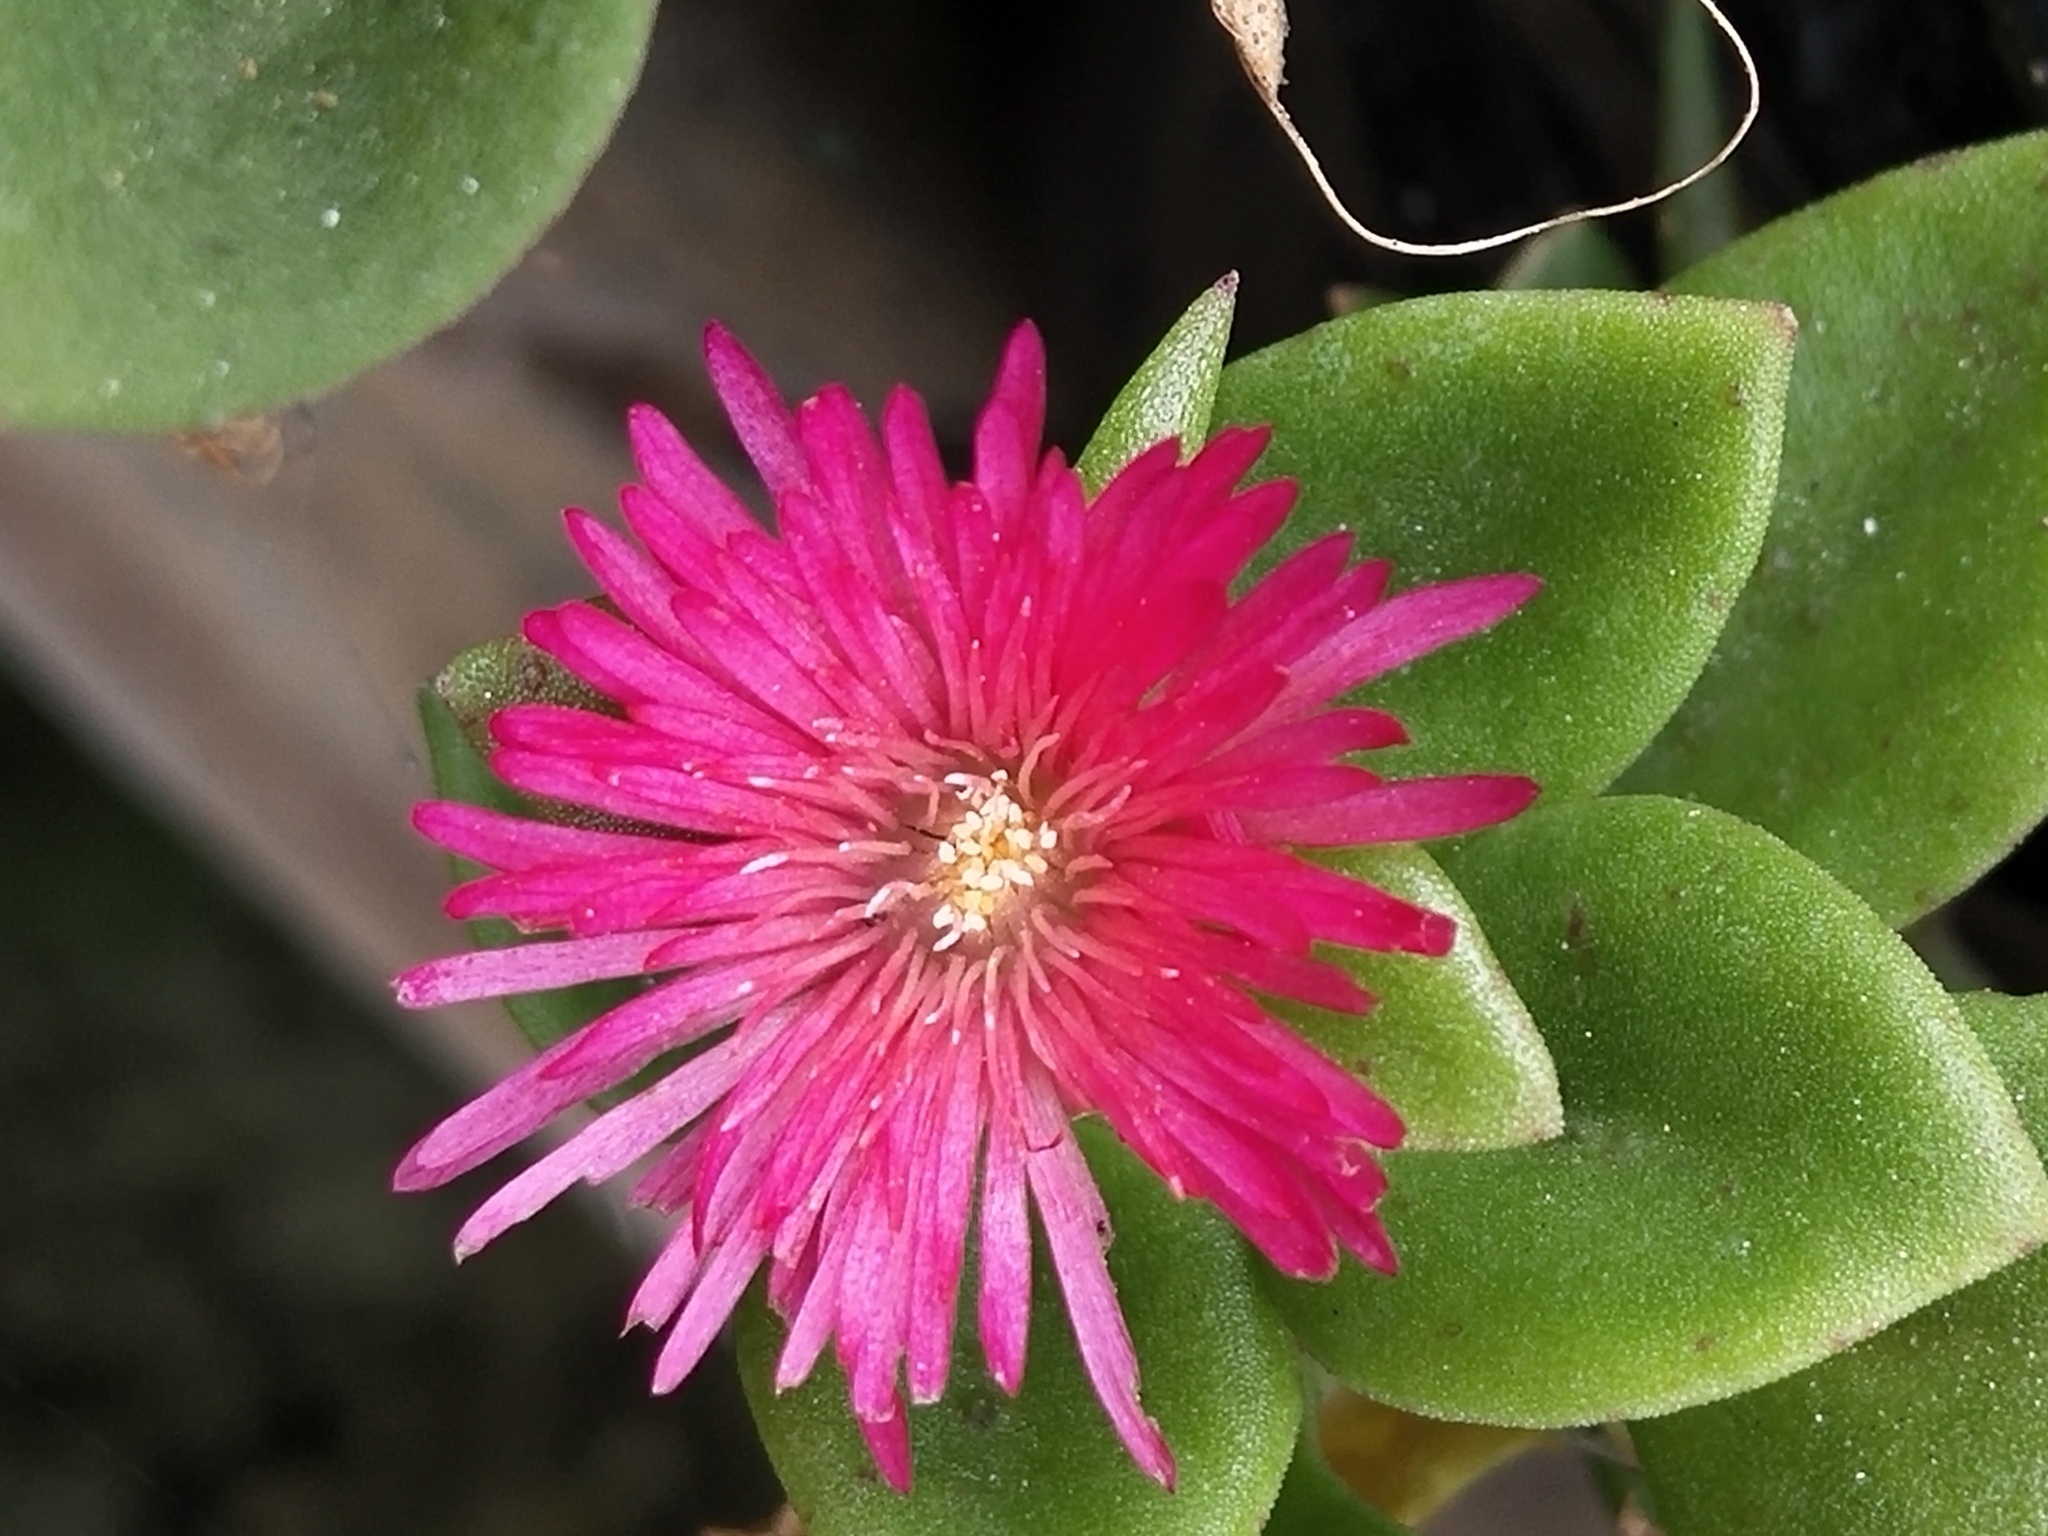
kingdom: Plantae
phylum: Tracheophyta
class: Magnoliopsida
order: Caryophyllales
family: Aizoaceae
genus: Mesembryanthemum
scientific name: Mesembryanthemum cordifolium
